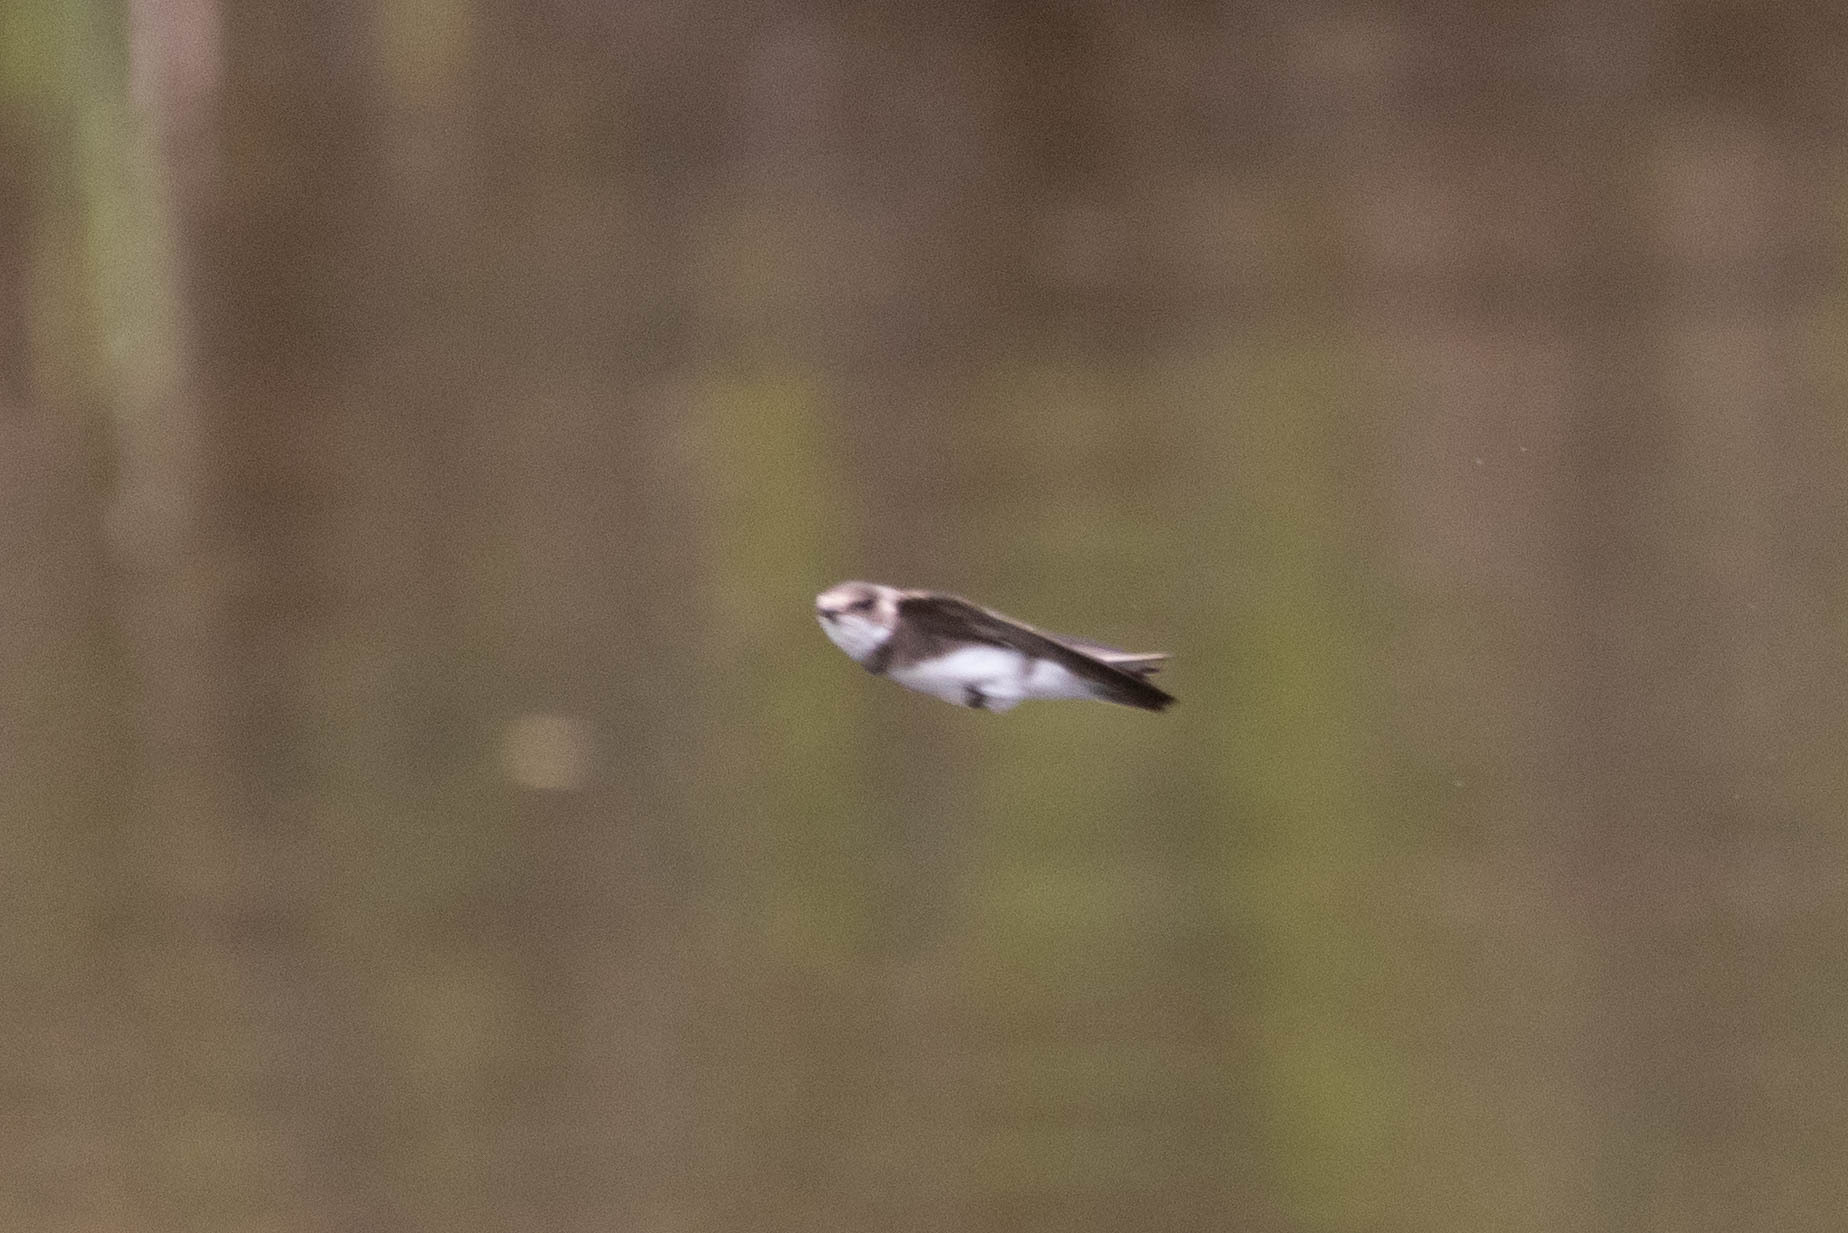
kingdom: Animalia
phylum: Chordata
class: Aves
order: Passeriformes
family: Hirundinidae
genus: Riparia
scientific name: Riparia riparia
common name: Sand martin
